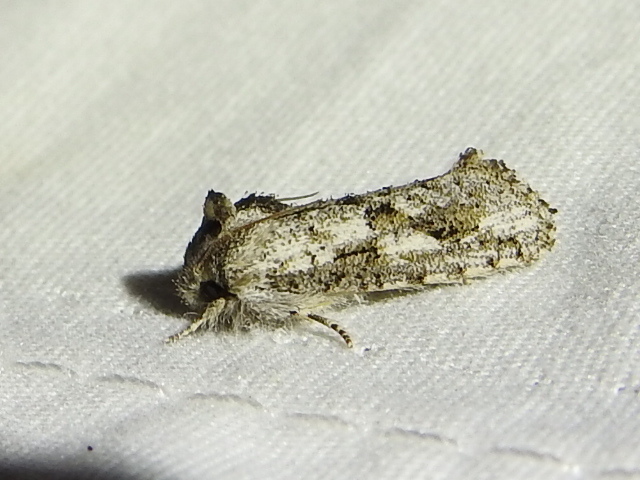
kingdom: Animalia
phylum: Arthropoda
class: Insecta
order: Lepidoptera
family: Tineidae
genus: Acrolophus
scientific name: Acrolophus griseus
